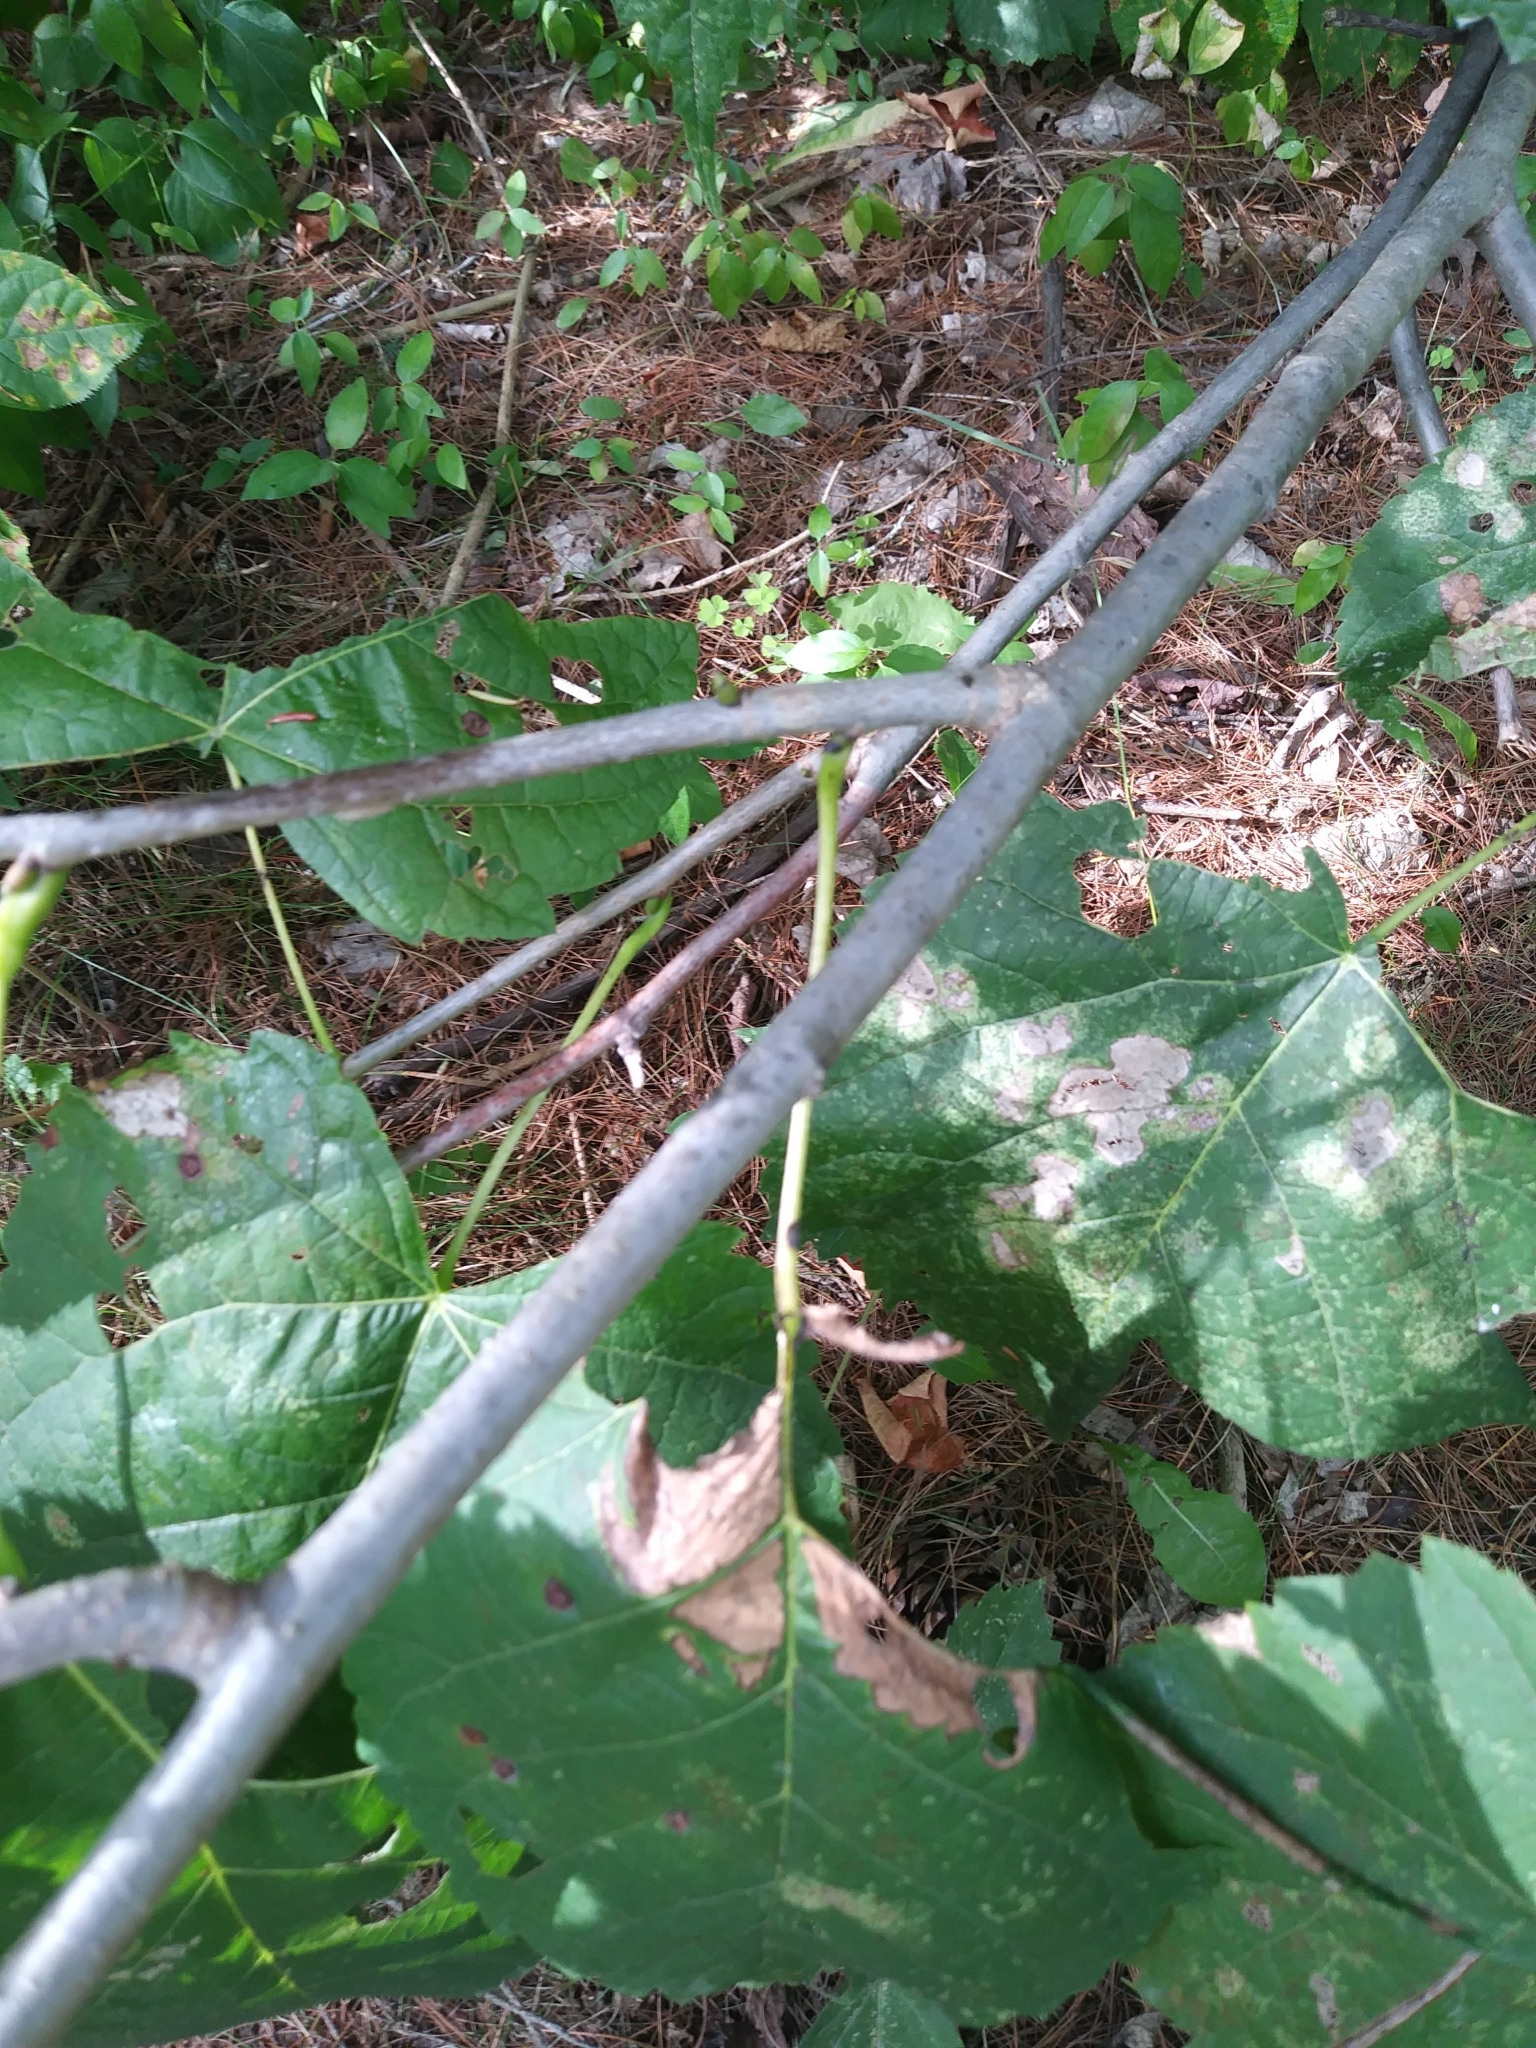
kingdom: Plantae
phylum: Tracheophyta
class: Magnoliopsida
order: Malvales
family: Malvaceae
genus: Tilia
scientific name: Tilia americana
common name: Basswood
